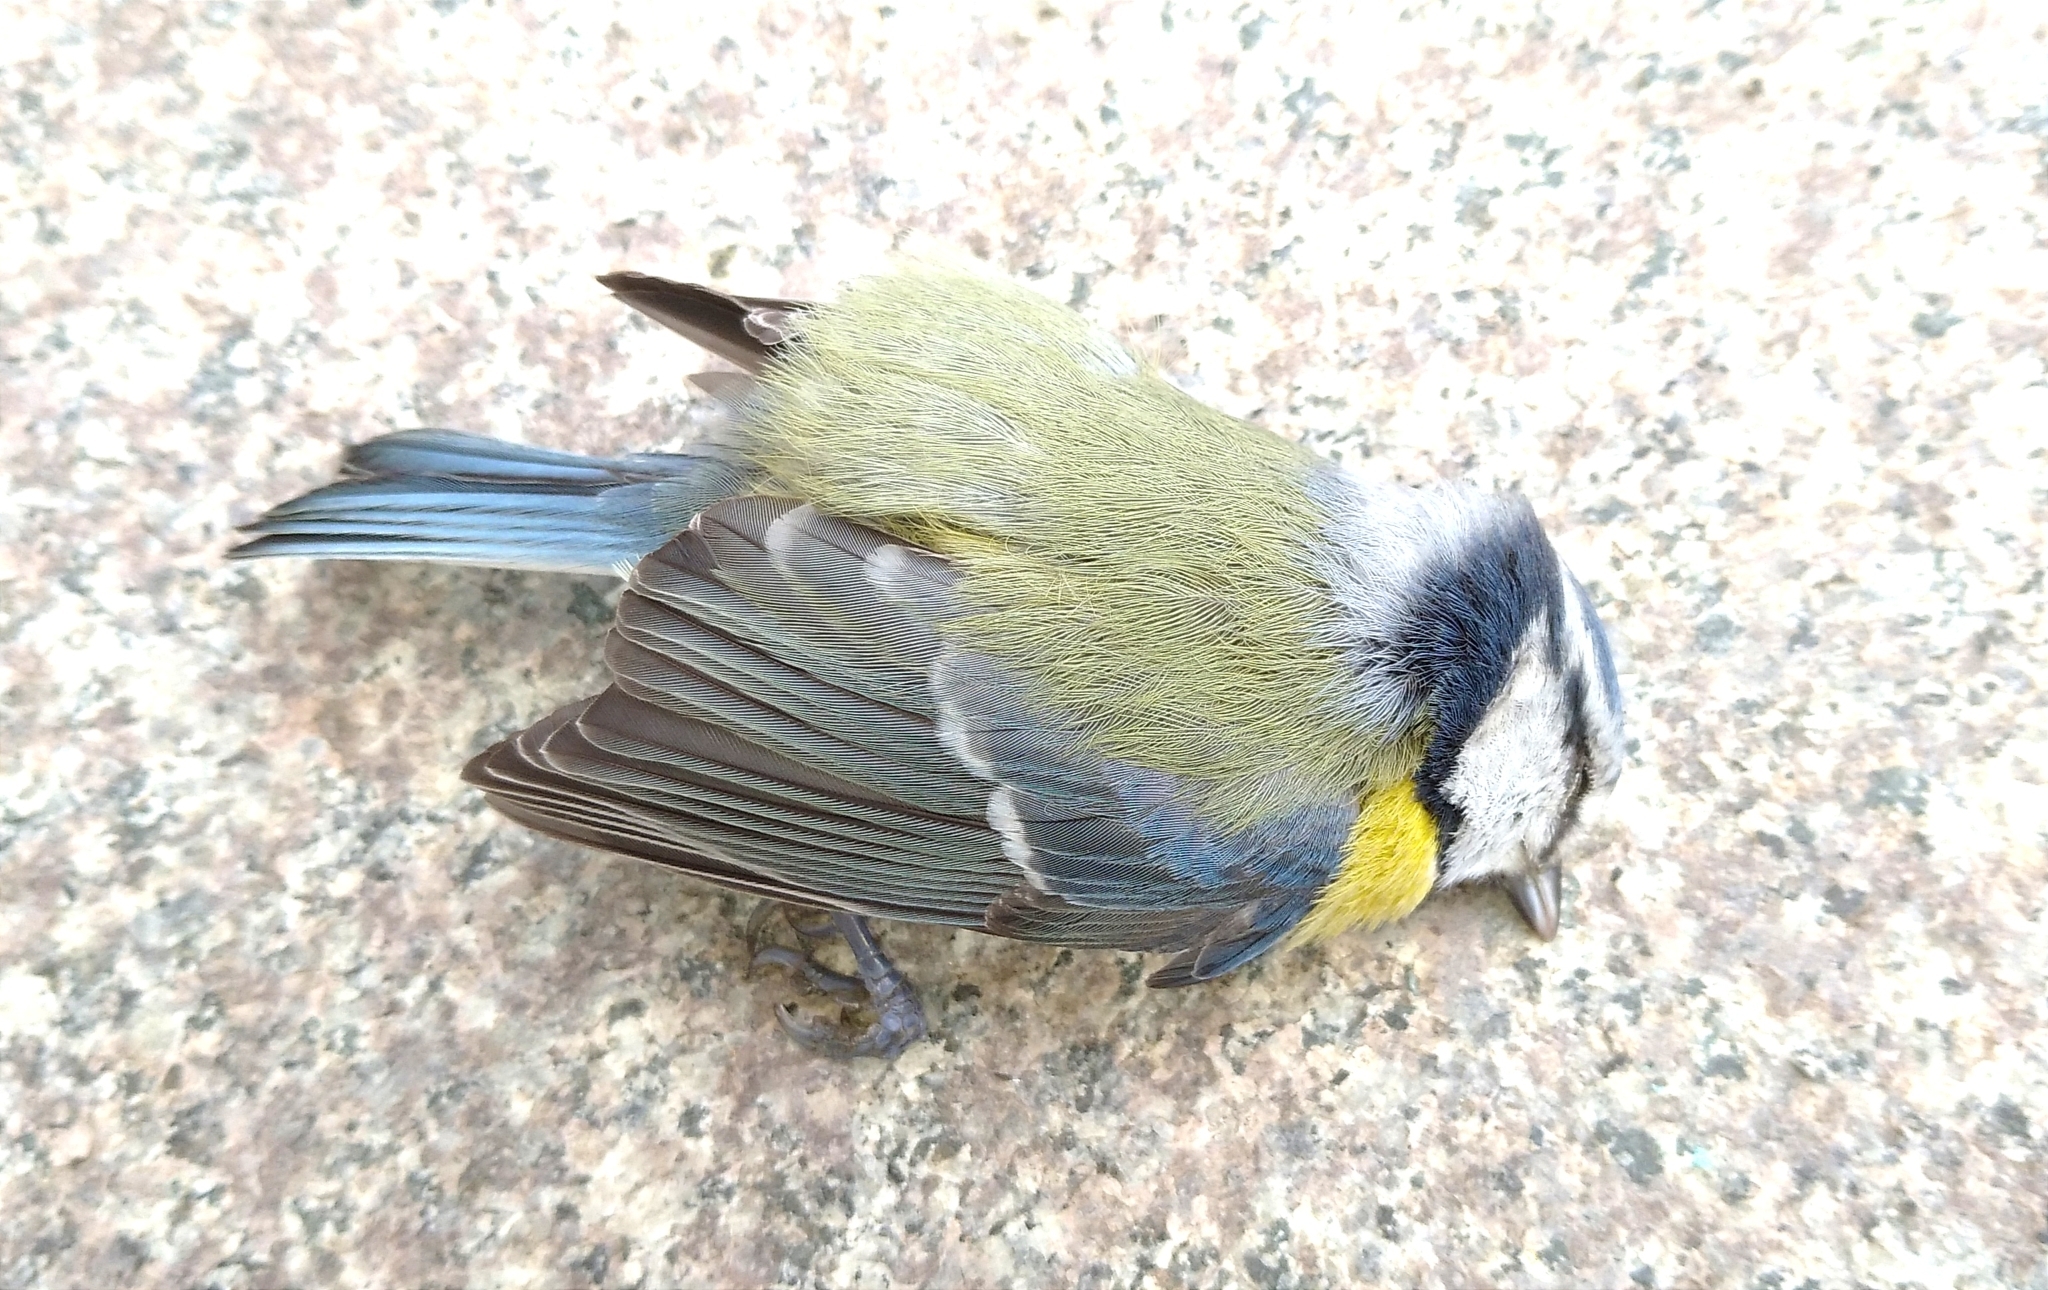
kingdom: Animalia
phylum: Chordata
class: Aves
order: Passeriformes
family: Paridae
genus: Cyanistes
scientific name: Cyanistes caeruleus
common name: Eurasian blue tit
